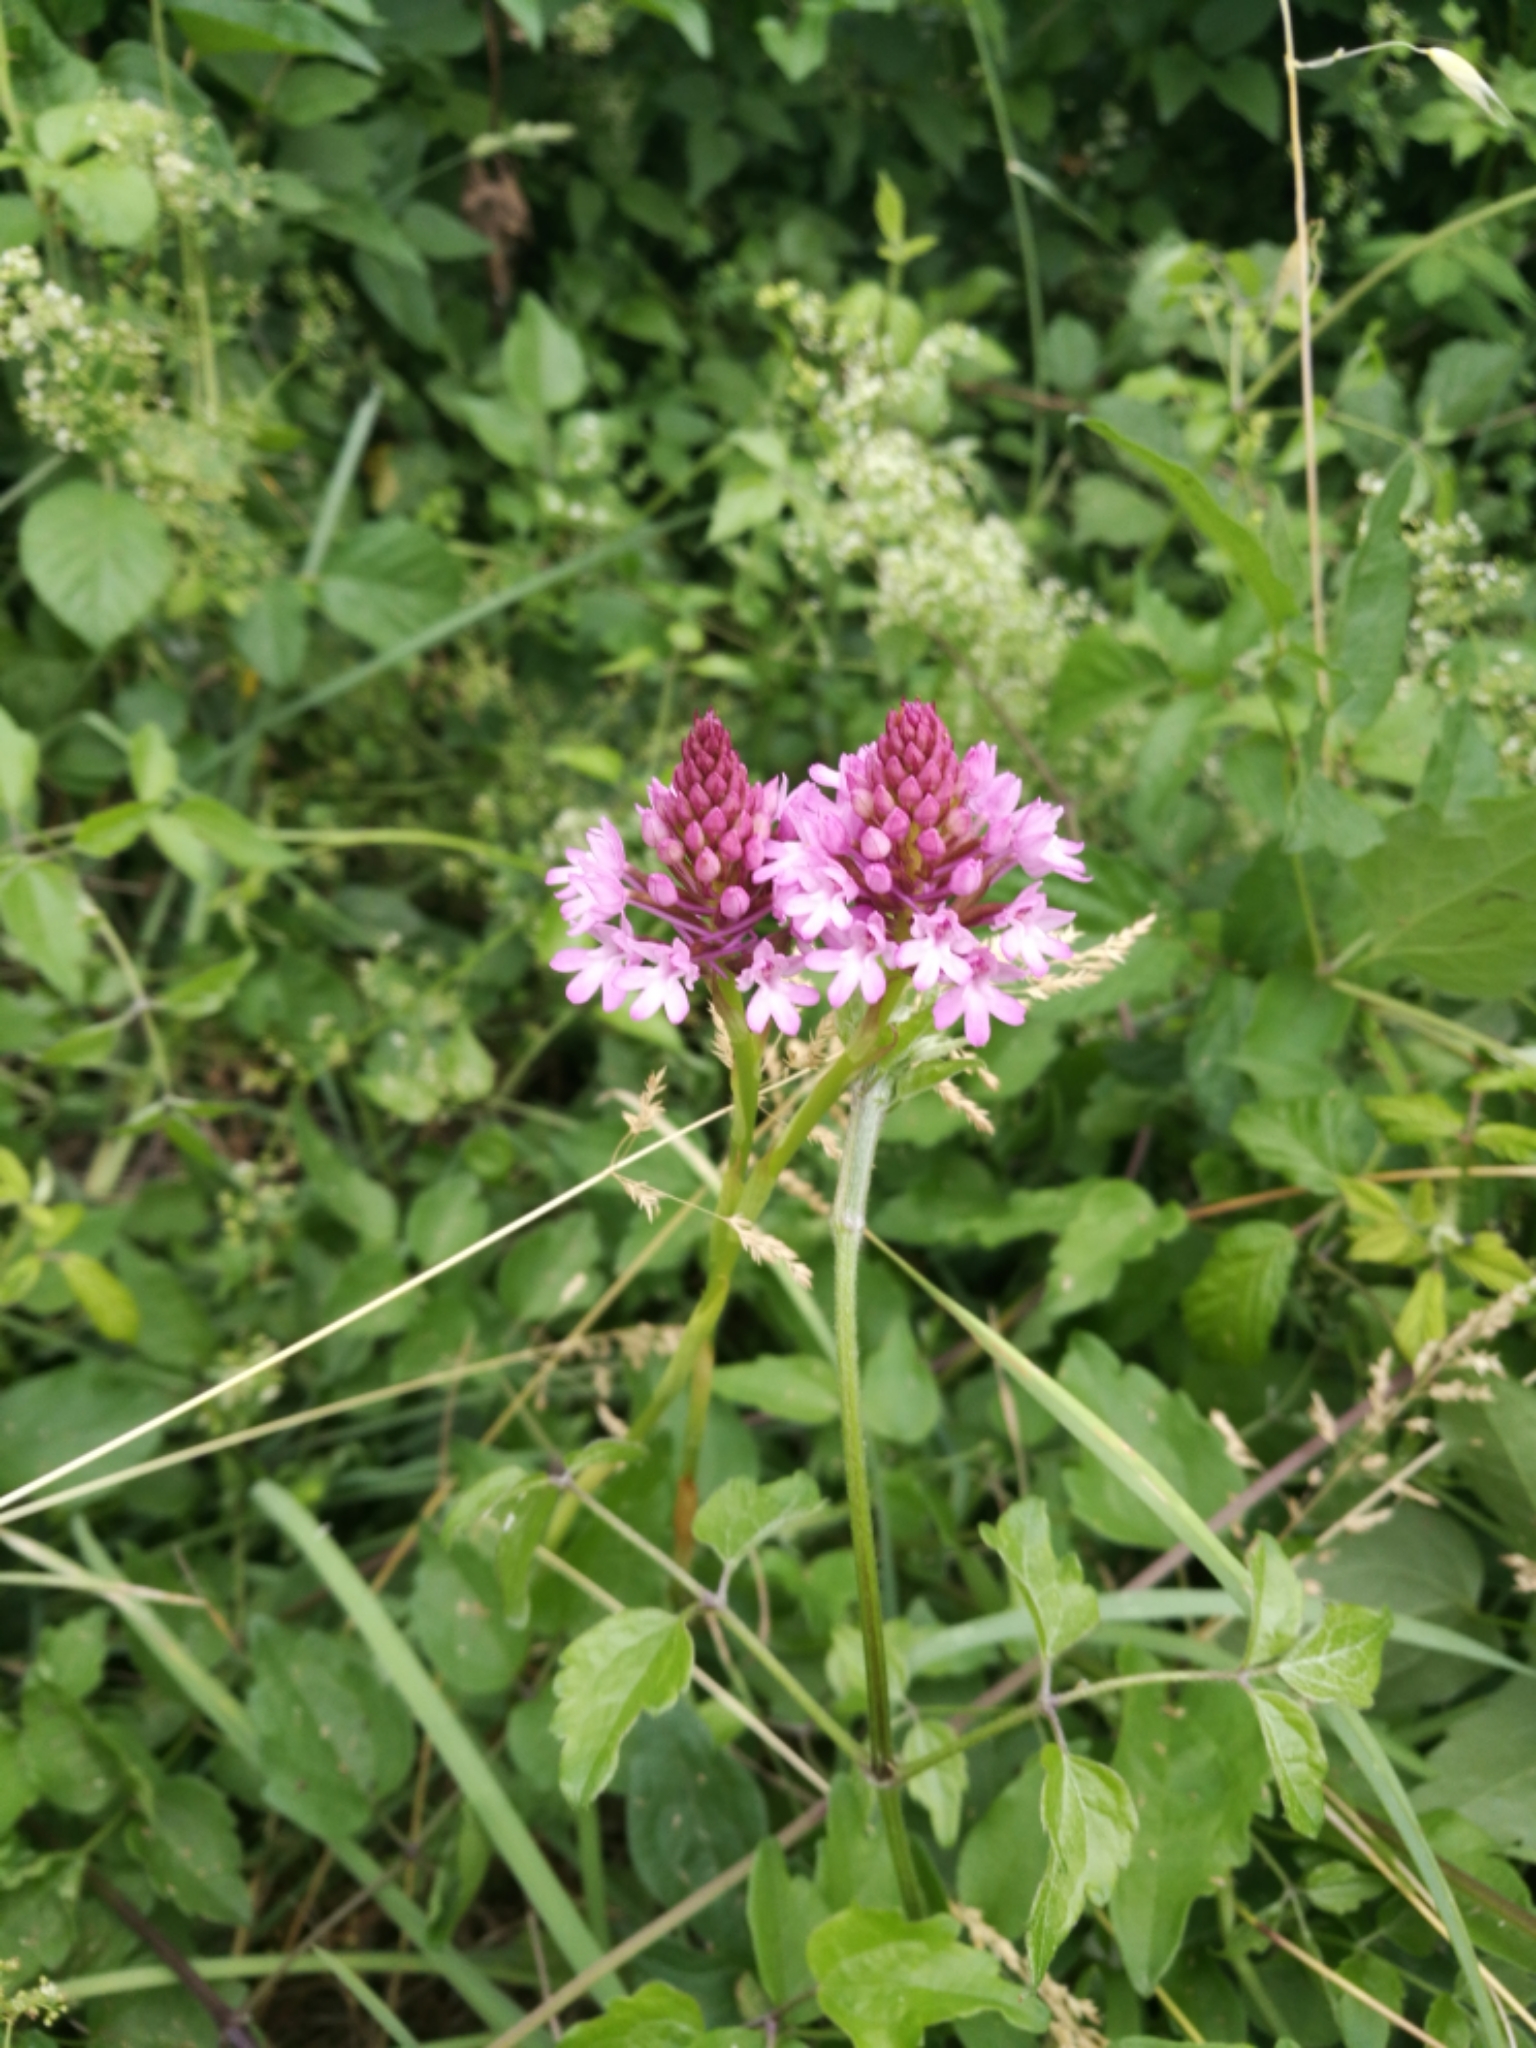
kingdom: Plantae
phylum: Tracheophyta
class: Liliopsida
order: Asparagales
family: Orchidaceae
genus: Anacamptis
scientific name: Anacamptis pyramidalis
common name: Pyramidal orchid
